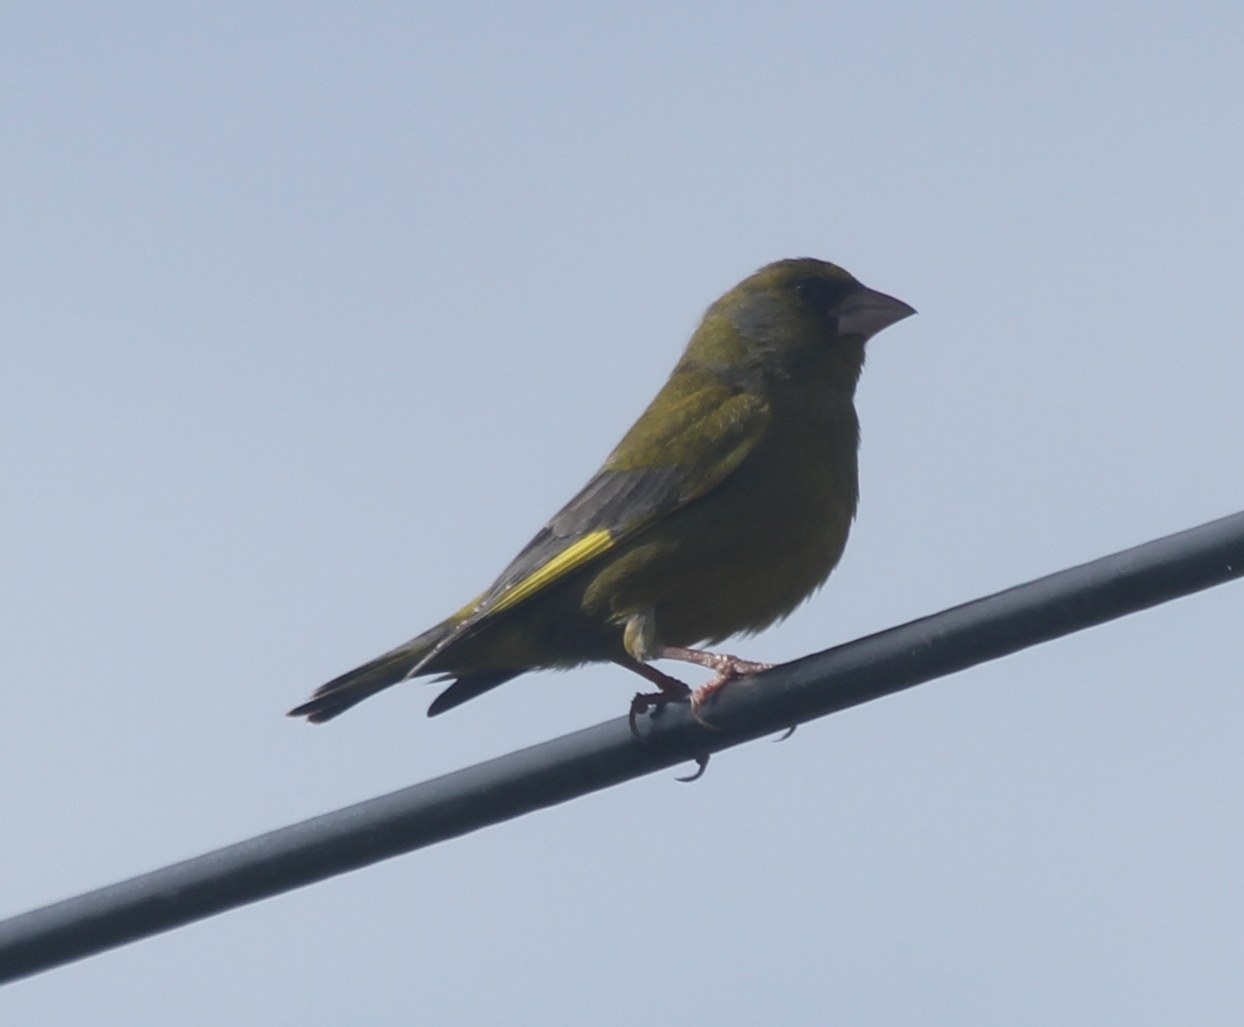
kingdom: Plantae
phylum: Tracheophyta
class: Liliopsida
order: Poales
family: Poaceae
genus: Chloris
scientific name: Chloris chloris
